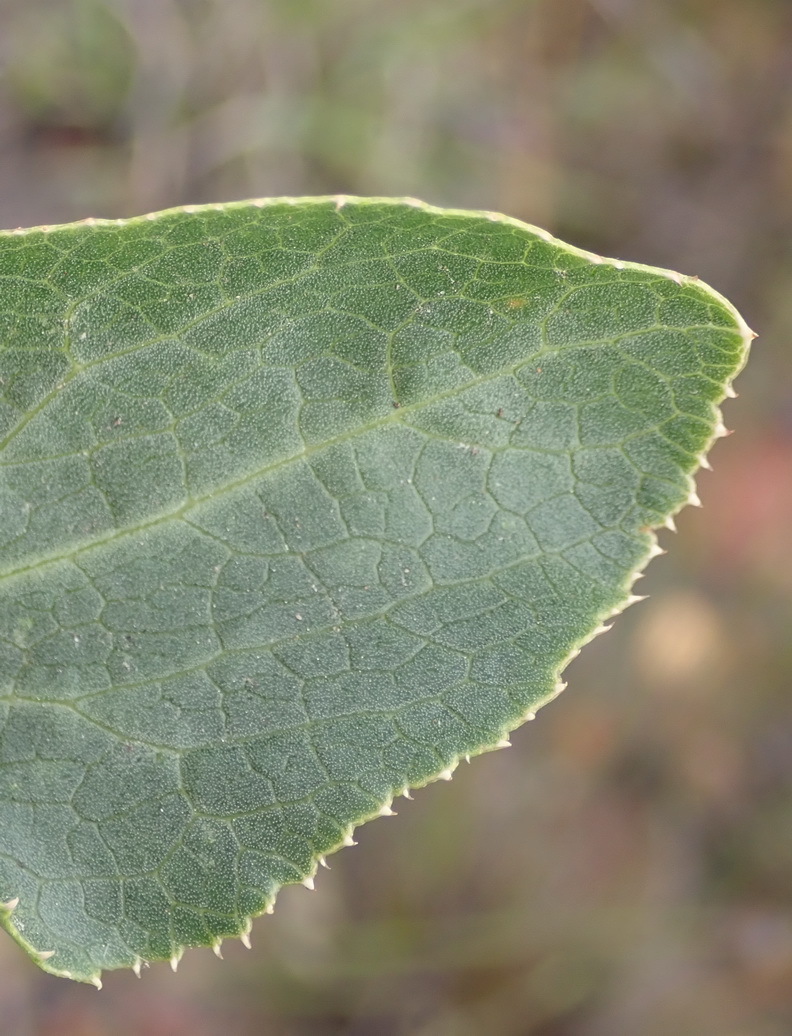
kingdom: Plantae
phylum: Tracheophyta
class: Magnoliopsida
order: Apiales
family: Apiaceae
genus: Lichtensteinia
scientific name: Lichtensteinia trifida
